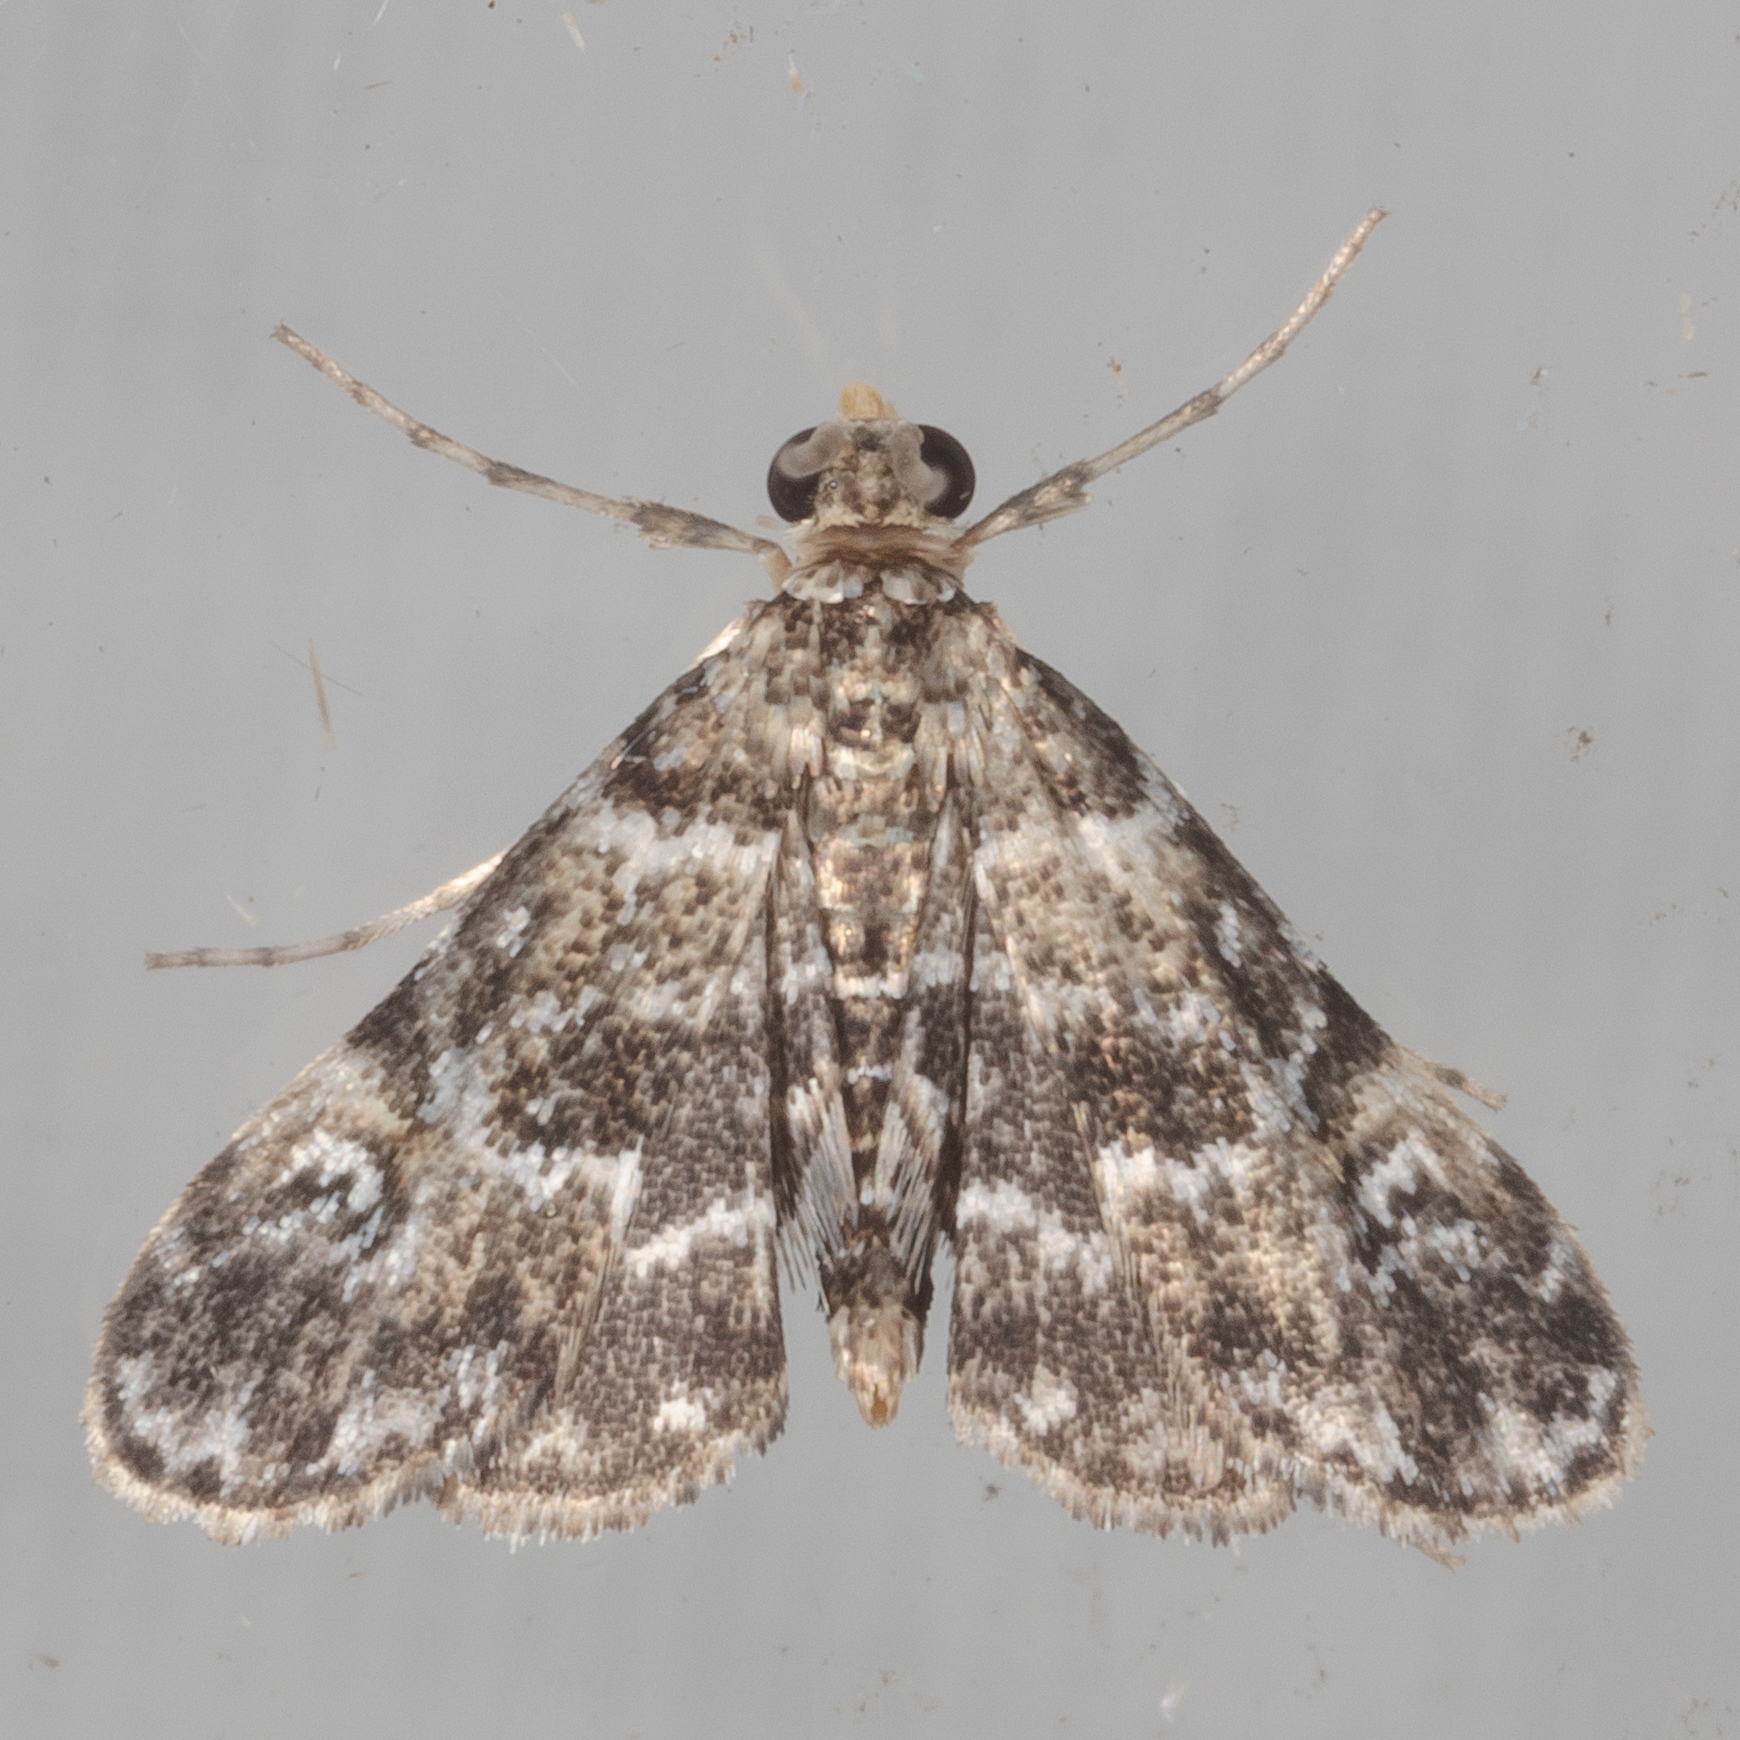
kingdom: Animalia
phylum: Arthropoda
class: Insecta
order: Lepidoptera
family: Crambidae
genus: Elophila
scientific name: Elophila obliteralis
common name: Waterlily leafcutter moth
